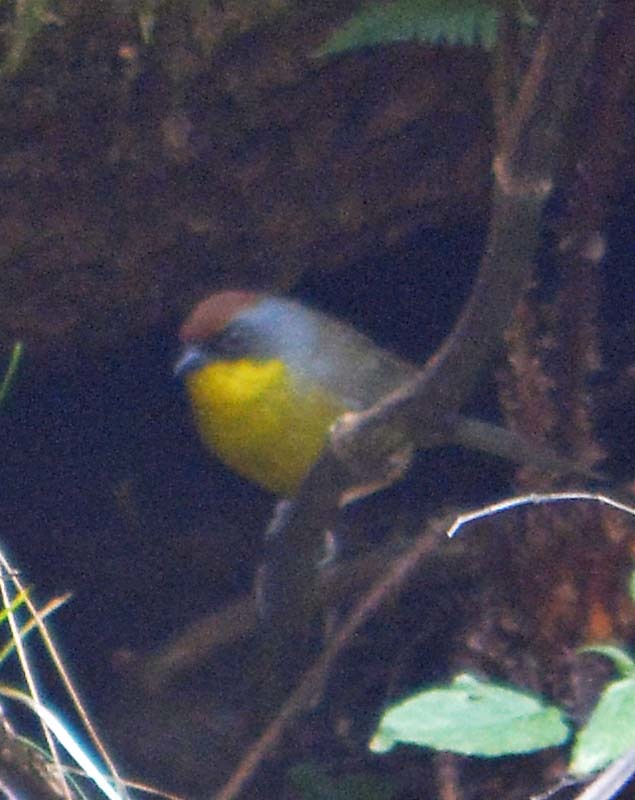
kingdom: Animalia
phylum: Chordata
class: Aves
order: Passeriformes
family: Passerellidae
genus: Atlapetes
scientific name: Atlapetes pileatus
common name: Rufous-capped brush-finch
